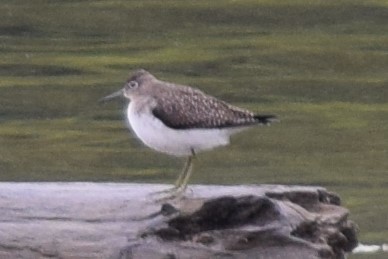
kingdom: Animalia
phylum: Chordata
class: Aves
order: Charadriiformes
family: Scolopacidae
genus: Tringa
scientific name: Tringa solitaria
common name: Solitary sandpiper
